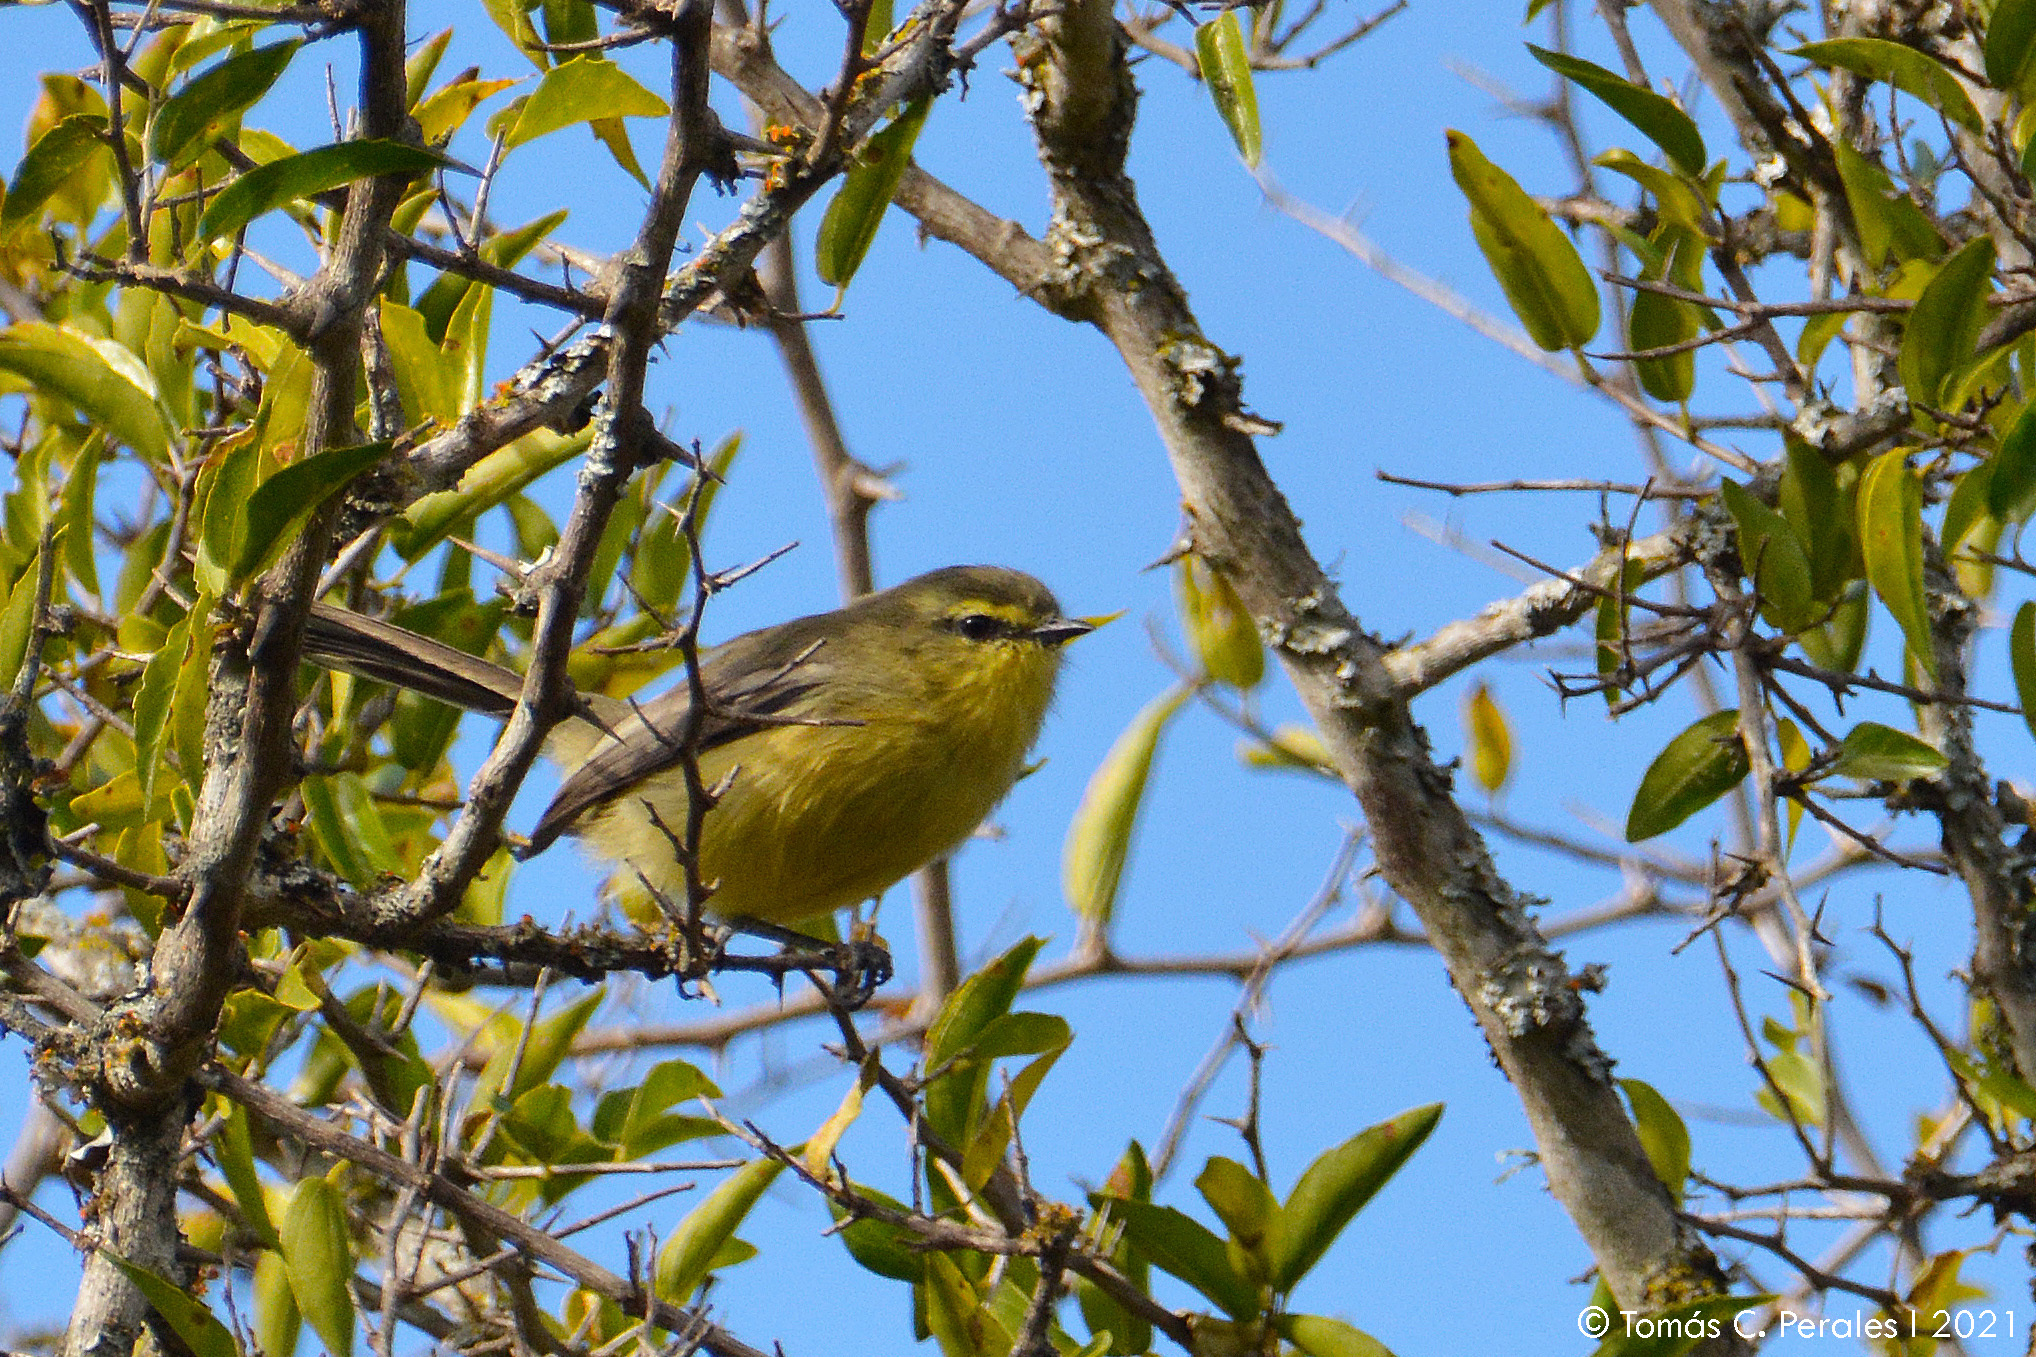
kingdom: Animalia
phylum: Chordata
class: Aves
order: Passeriformes
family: Tyrannidae
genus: Stigmatura
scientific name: Stigmatura budytoides
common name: Greater wagtail-tyrant
